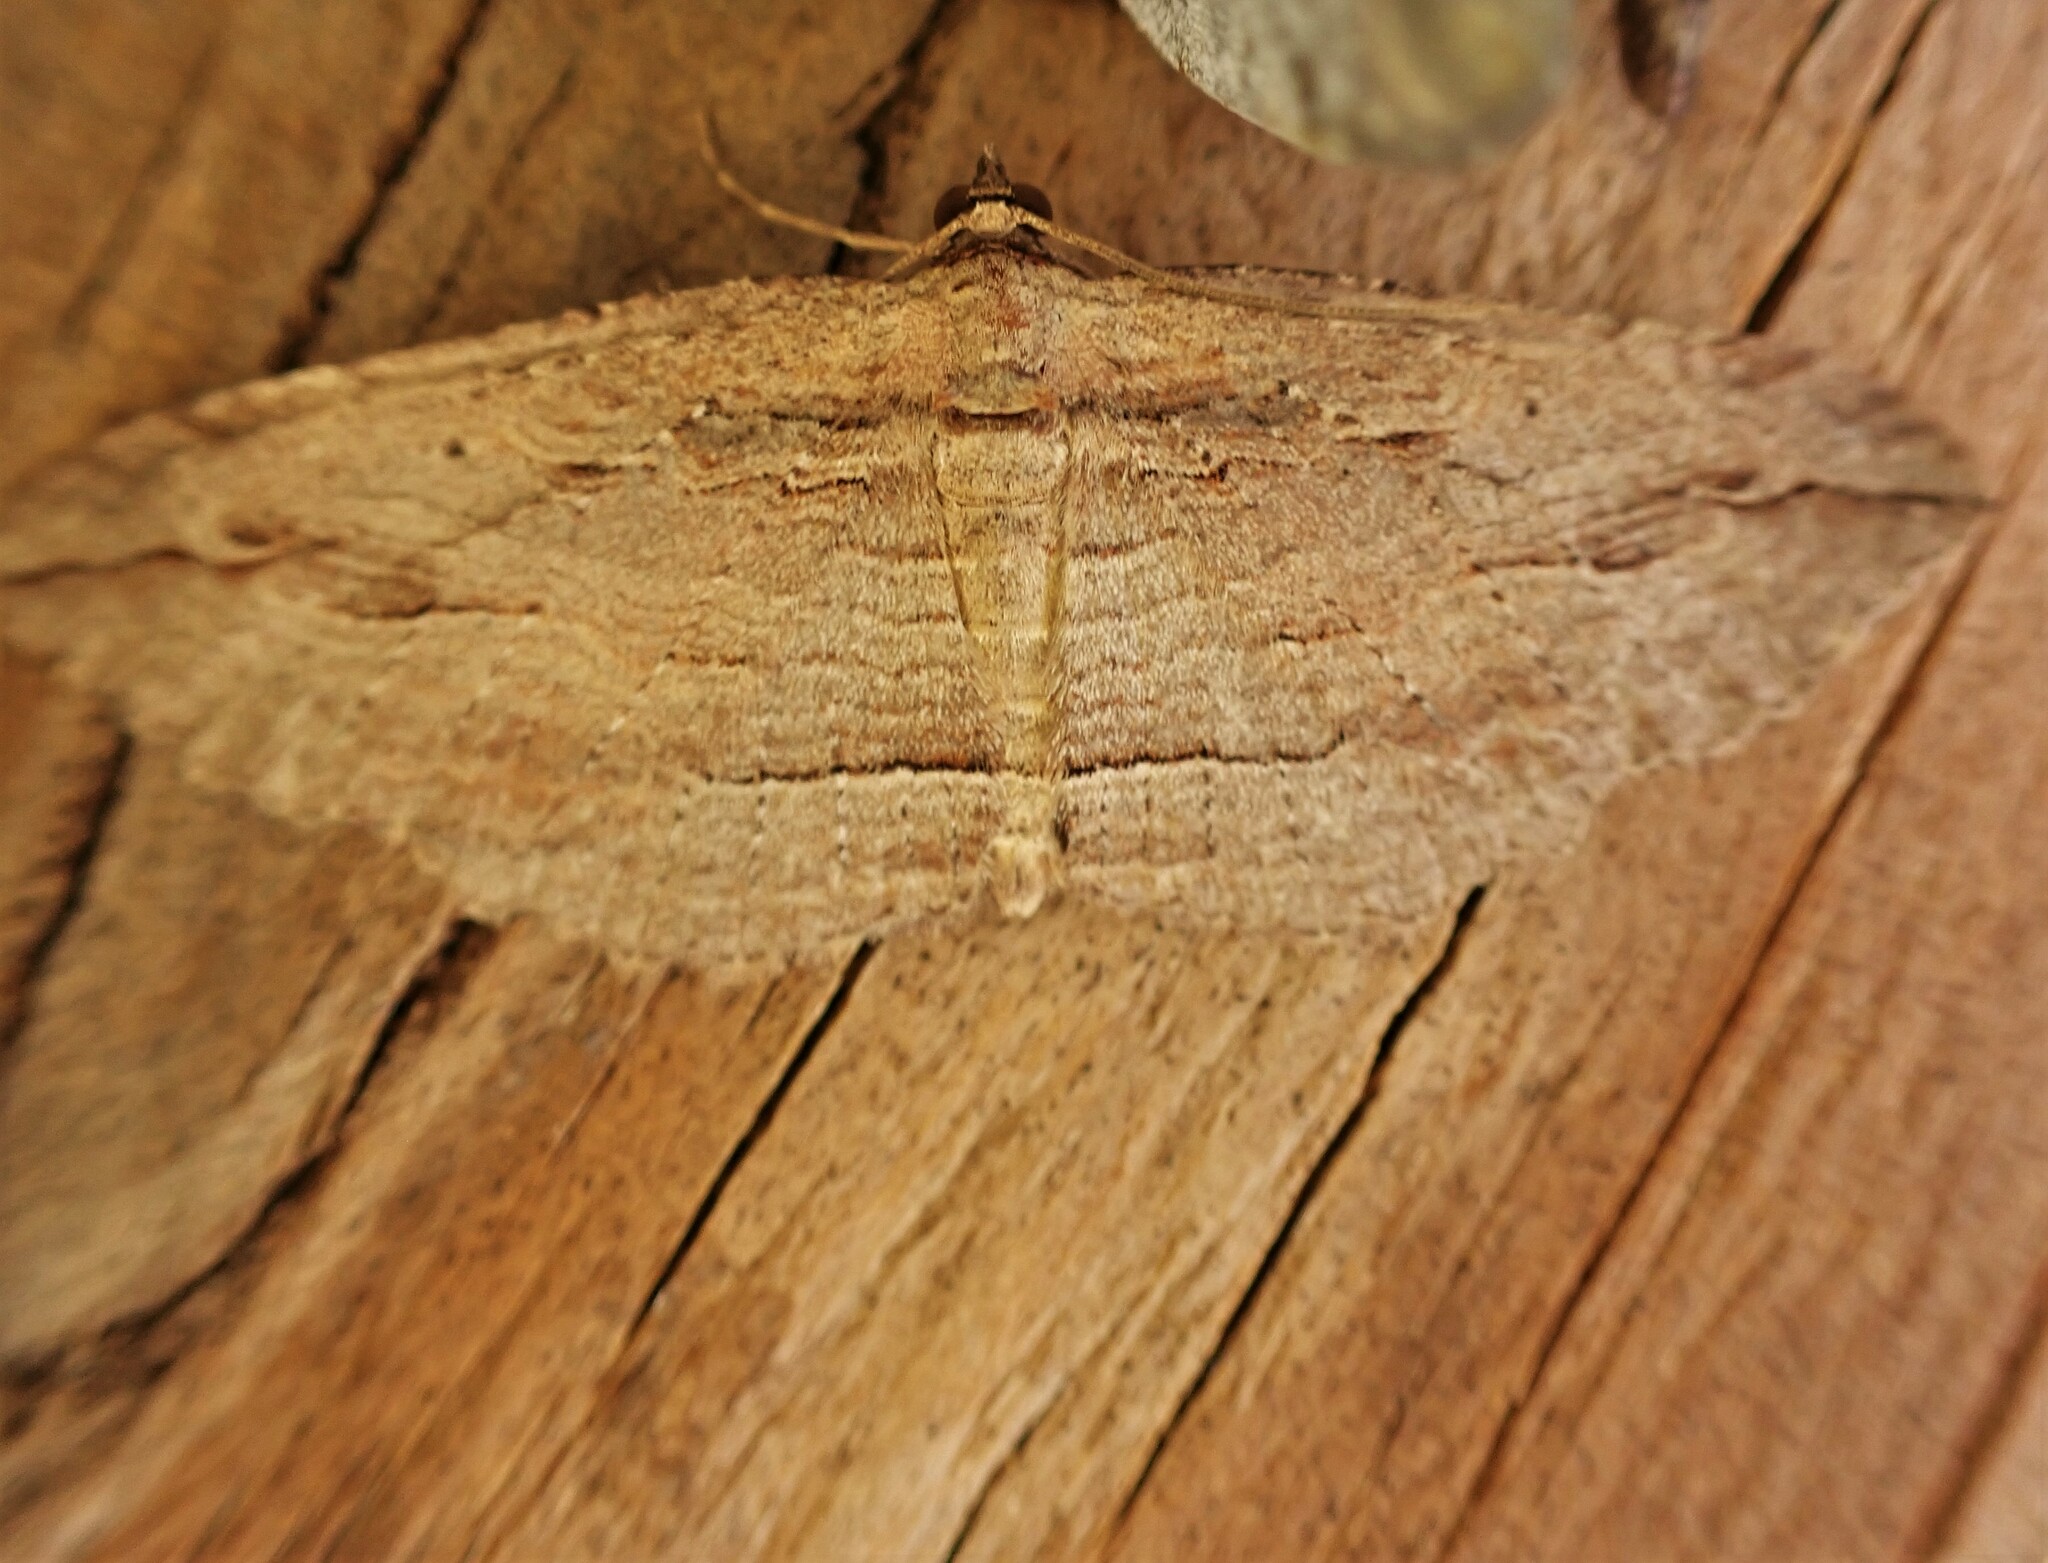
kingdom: Animalia
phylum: Arthropoda
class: Insecta
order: Lepidoptera
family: Geometridae
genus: Austrocidaria
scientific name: Austrocidaria gobiata
